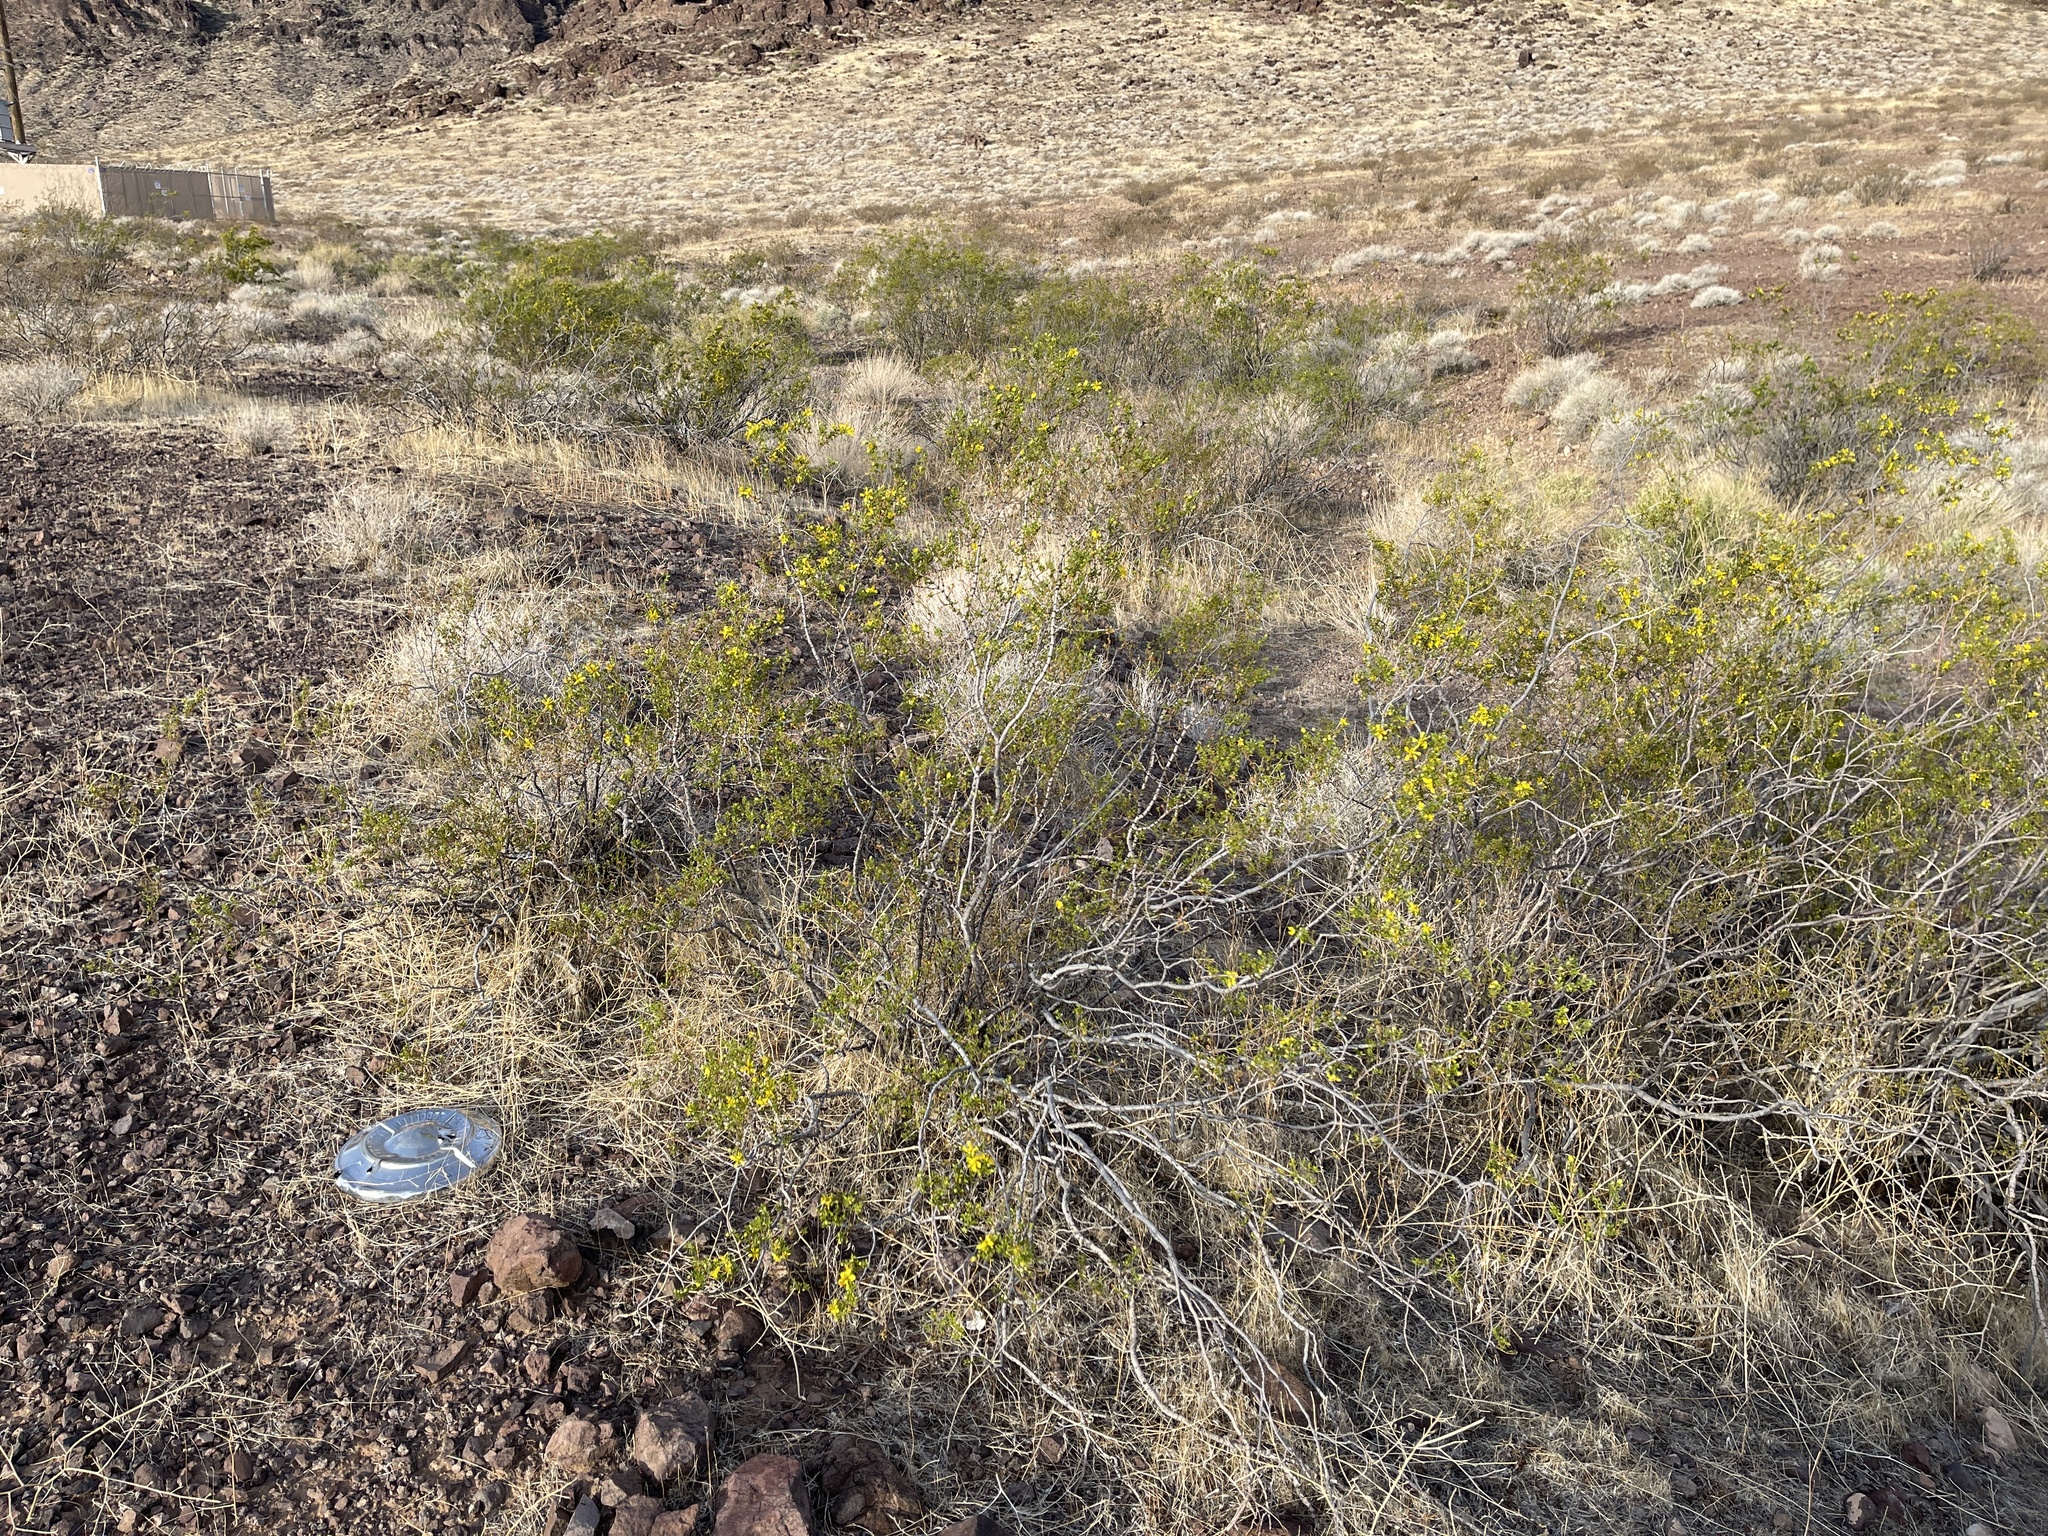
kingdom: Plantae
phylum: Tracheophyta
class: Magnoliopsida
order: Zygophyllales
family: Zygophyllaceae
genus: Larrea
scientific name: Larrea tridentata
